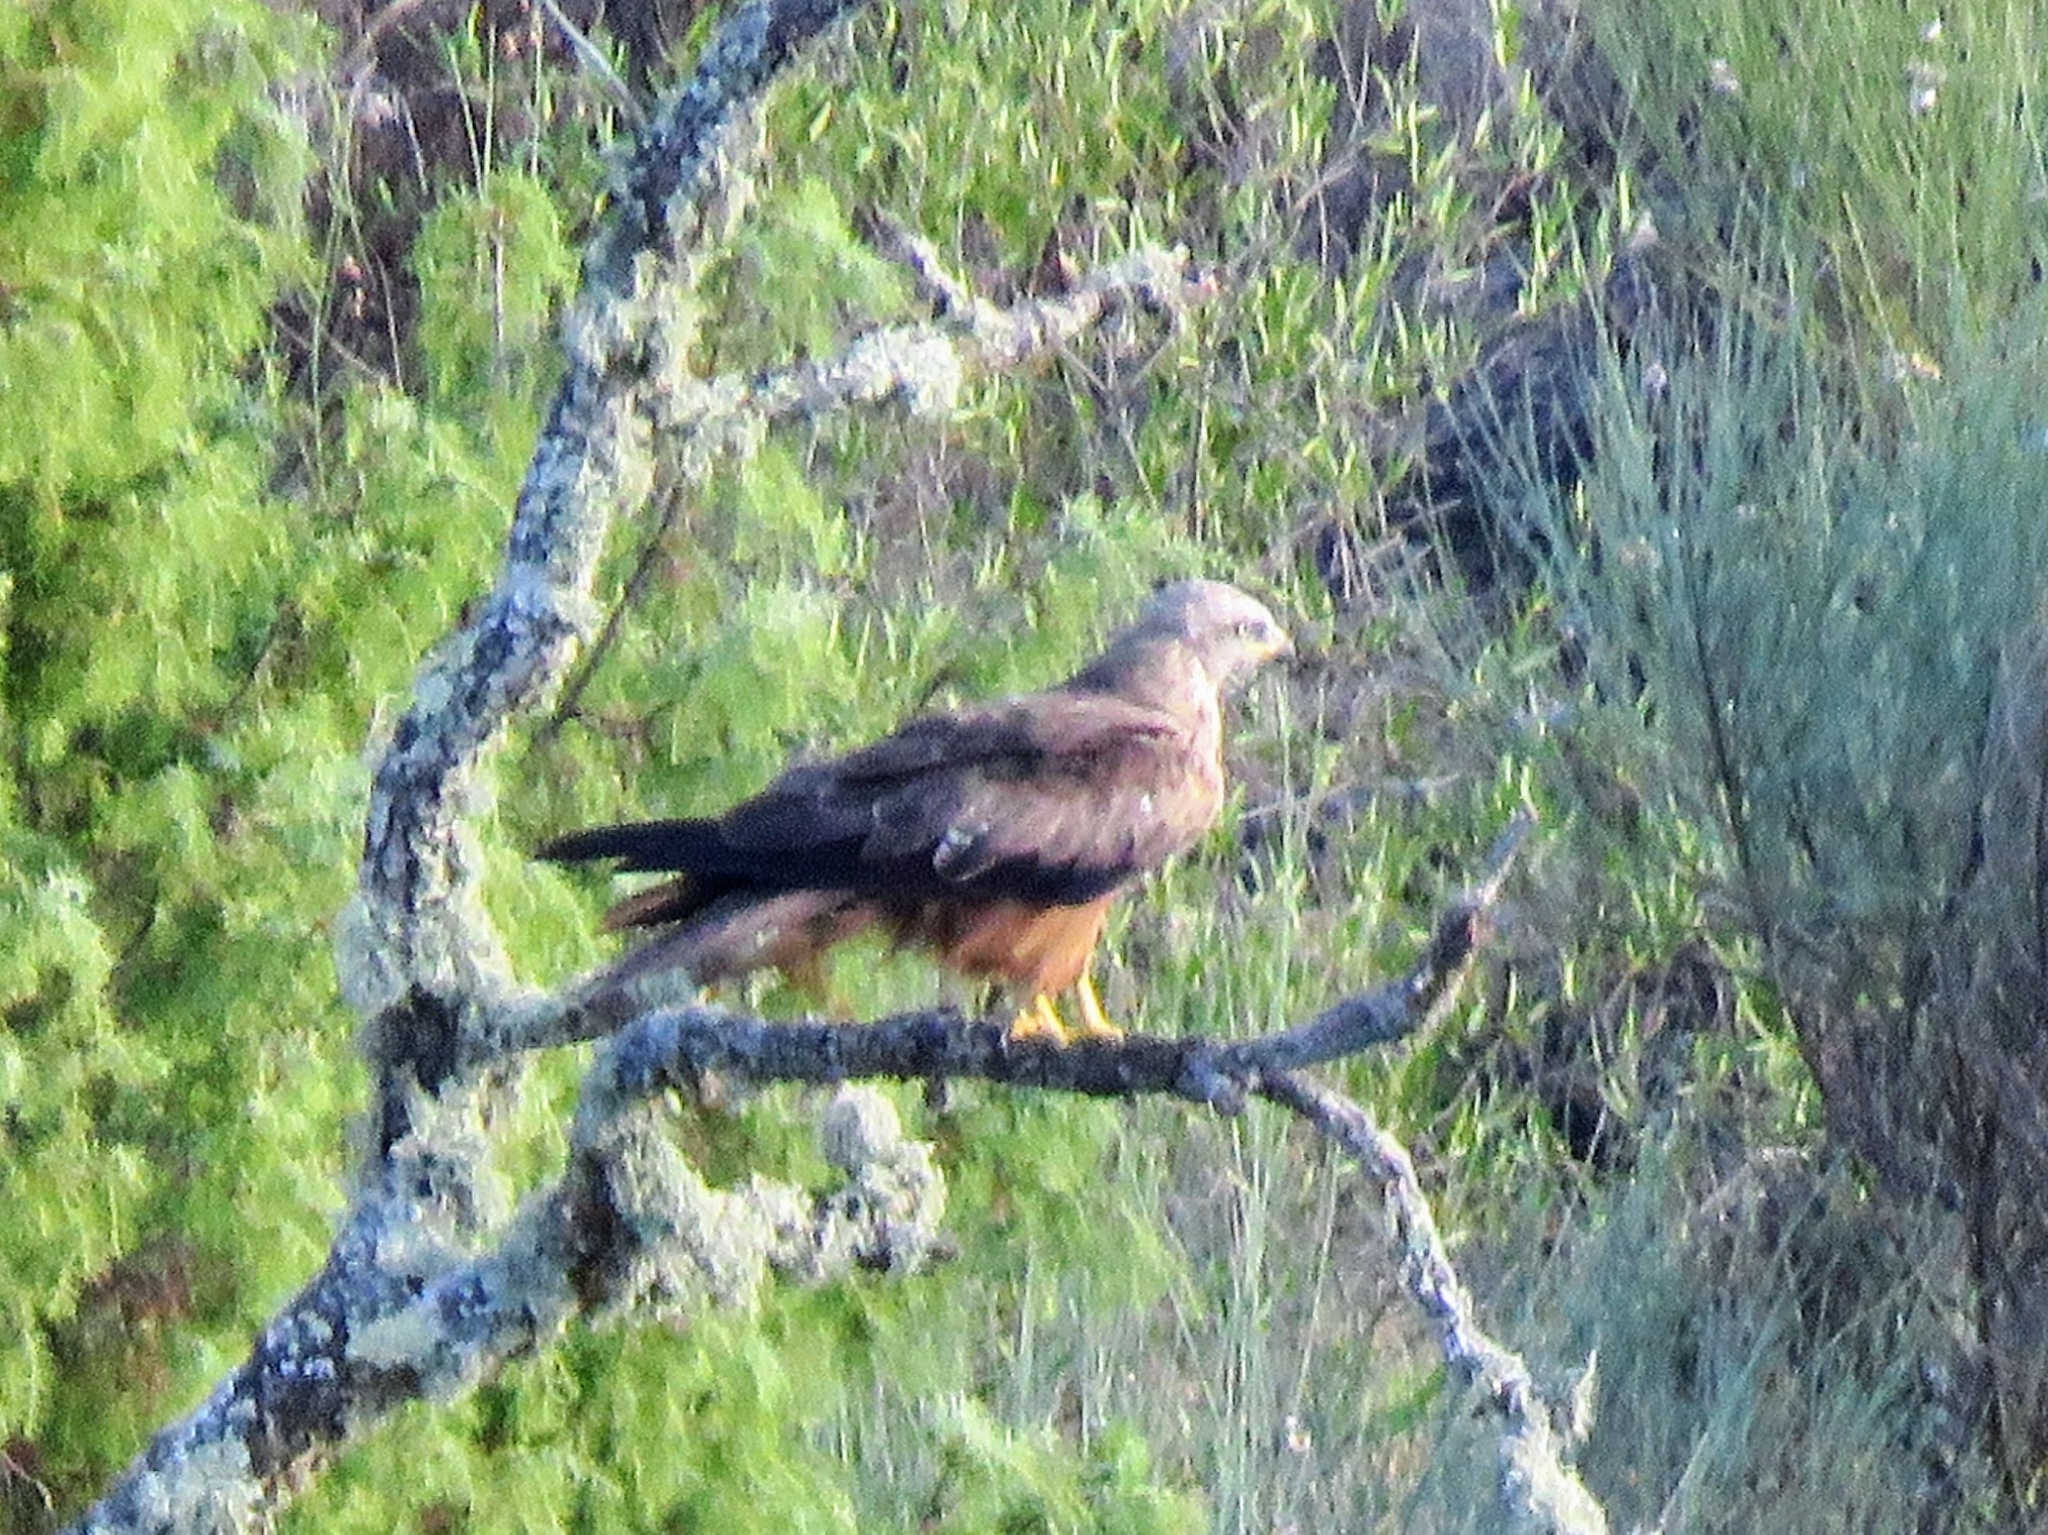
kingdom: Animalia
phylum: Chordata
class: Aves
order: Accipitriformes
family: Accipitridae
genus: Milvus
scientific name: Milvus milvus
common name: Red kite
